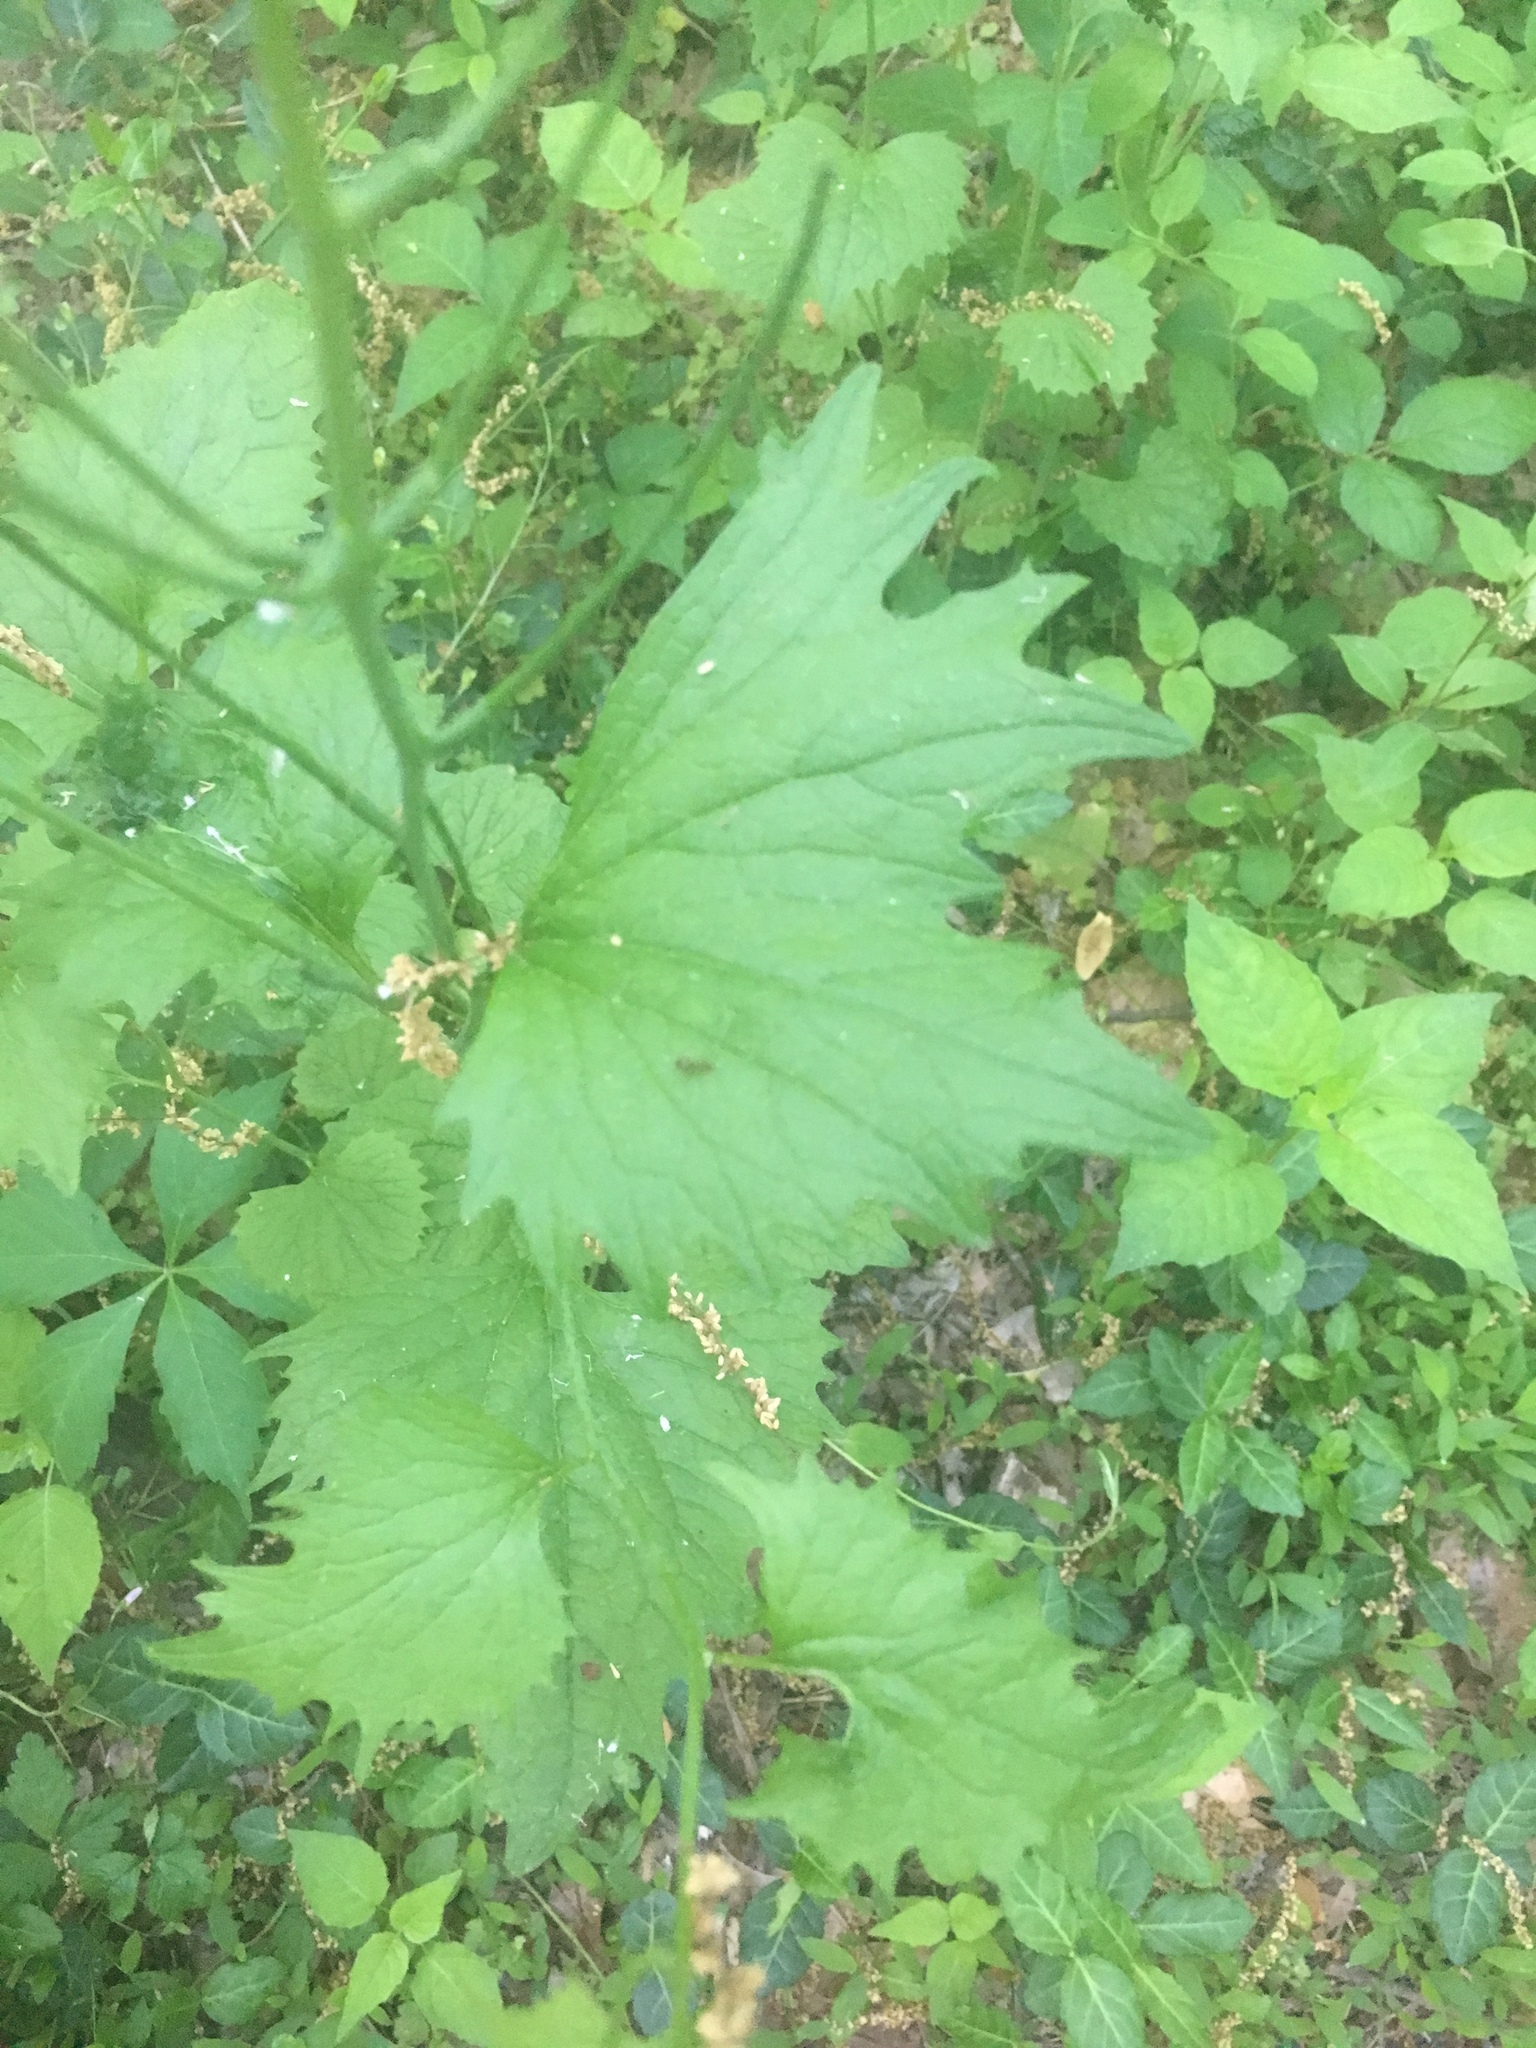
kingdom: Plantae
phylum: Tracheophyta
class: Magnoliopsida
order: Brassicales
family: Brassicaceae
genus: Alliaria
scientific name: Alliaria petiolata
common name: Garlic mustard
